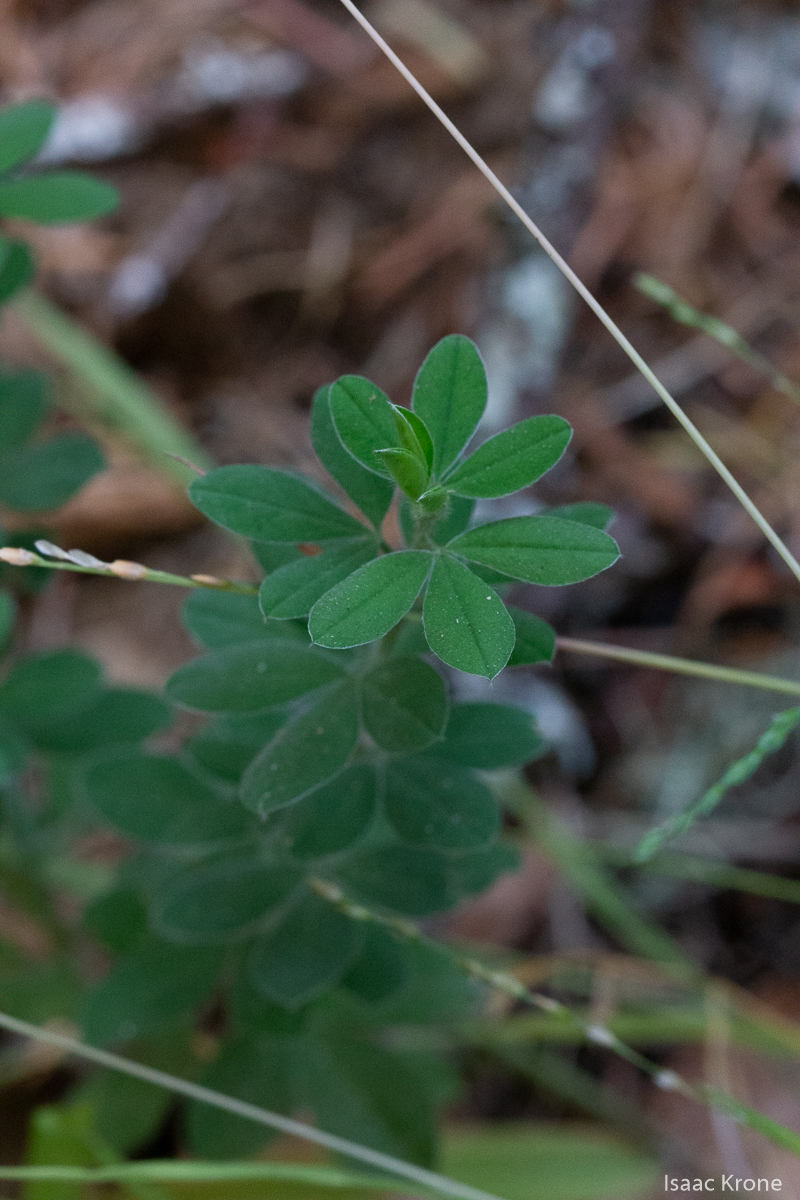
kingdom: Plantae
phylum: Tracheophyta
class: Magnoliopsida
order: Fabales
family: Fabaceae
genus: Genista
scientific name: Genista monspessulana
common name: Montpellier broom
